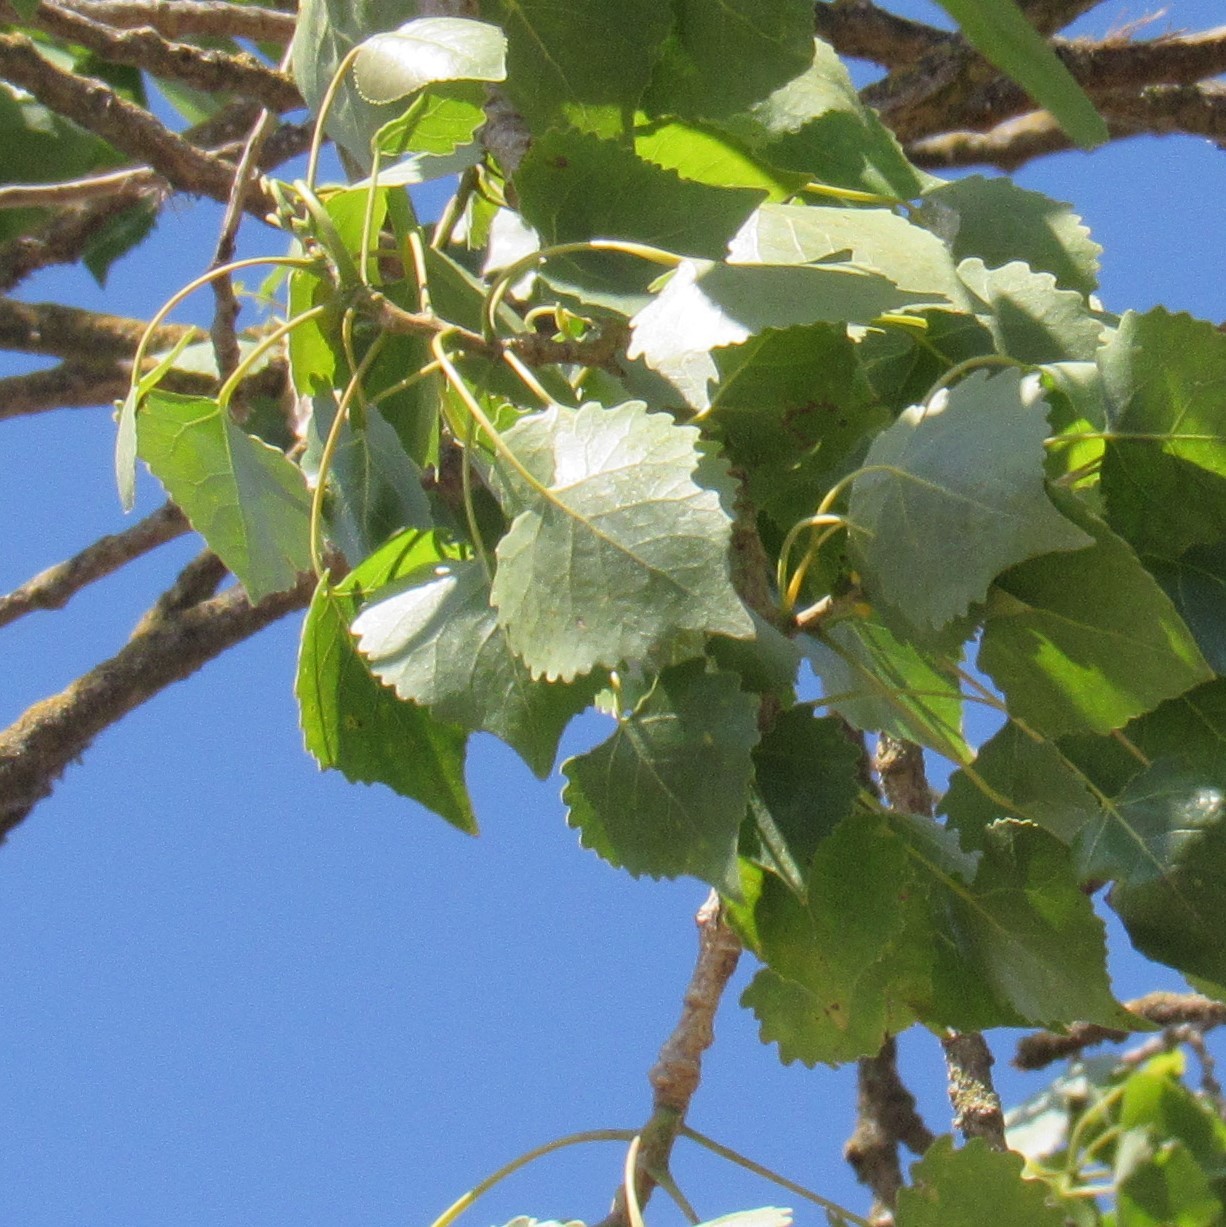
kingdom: Plantae
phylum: Tracheophyta
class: Magnoliopsida
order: Malpighiales
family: Salicaceae
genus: Populus
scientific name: Populus fremontii
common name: Fremont's cottonwood
